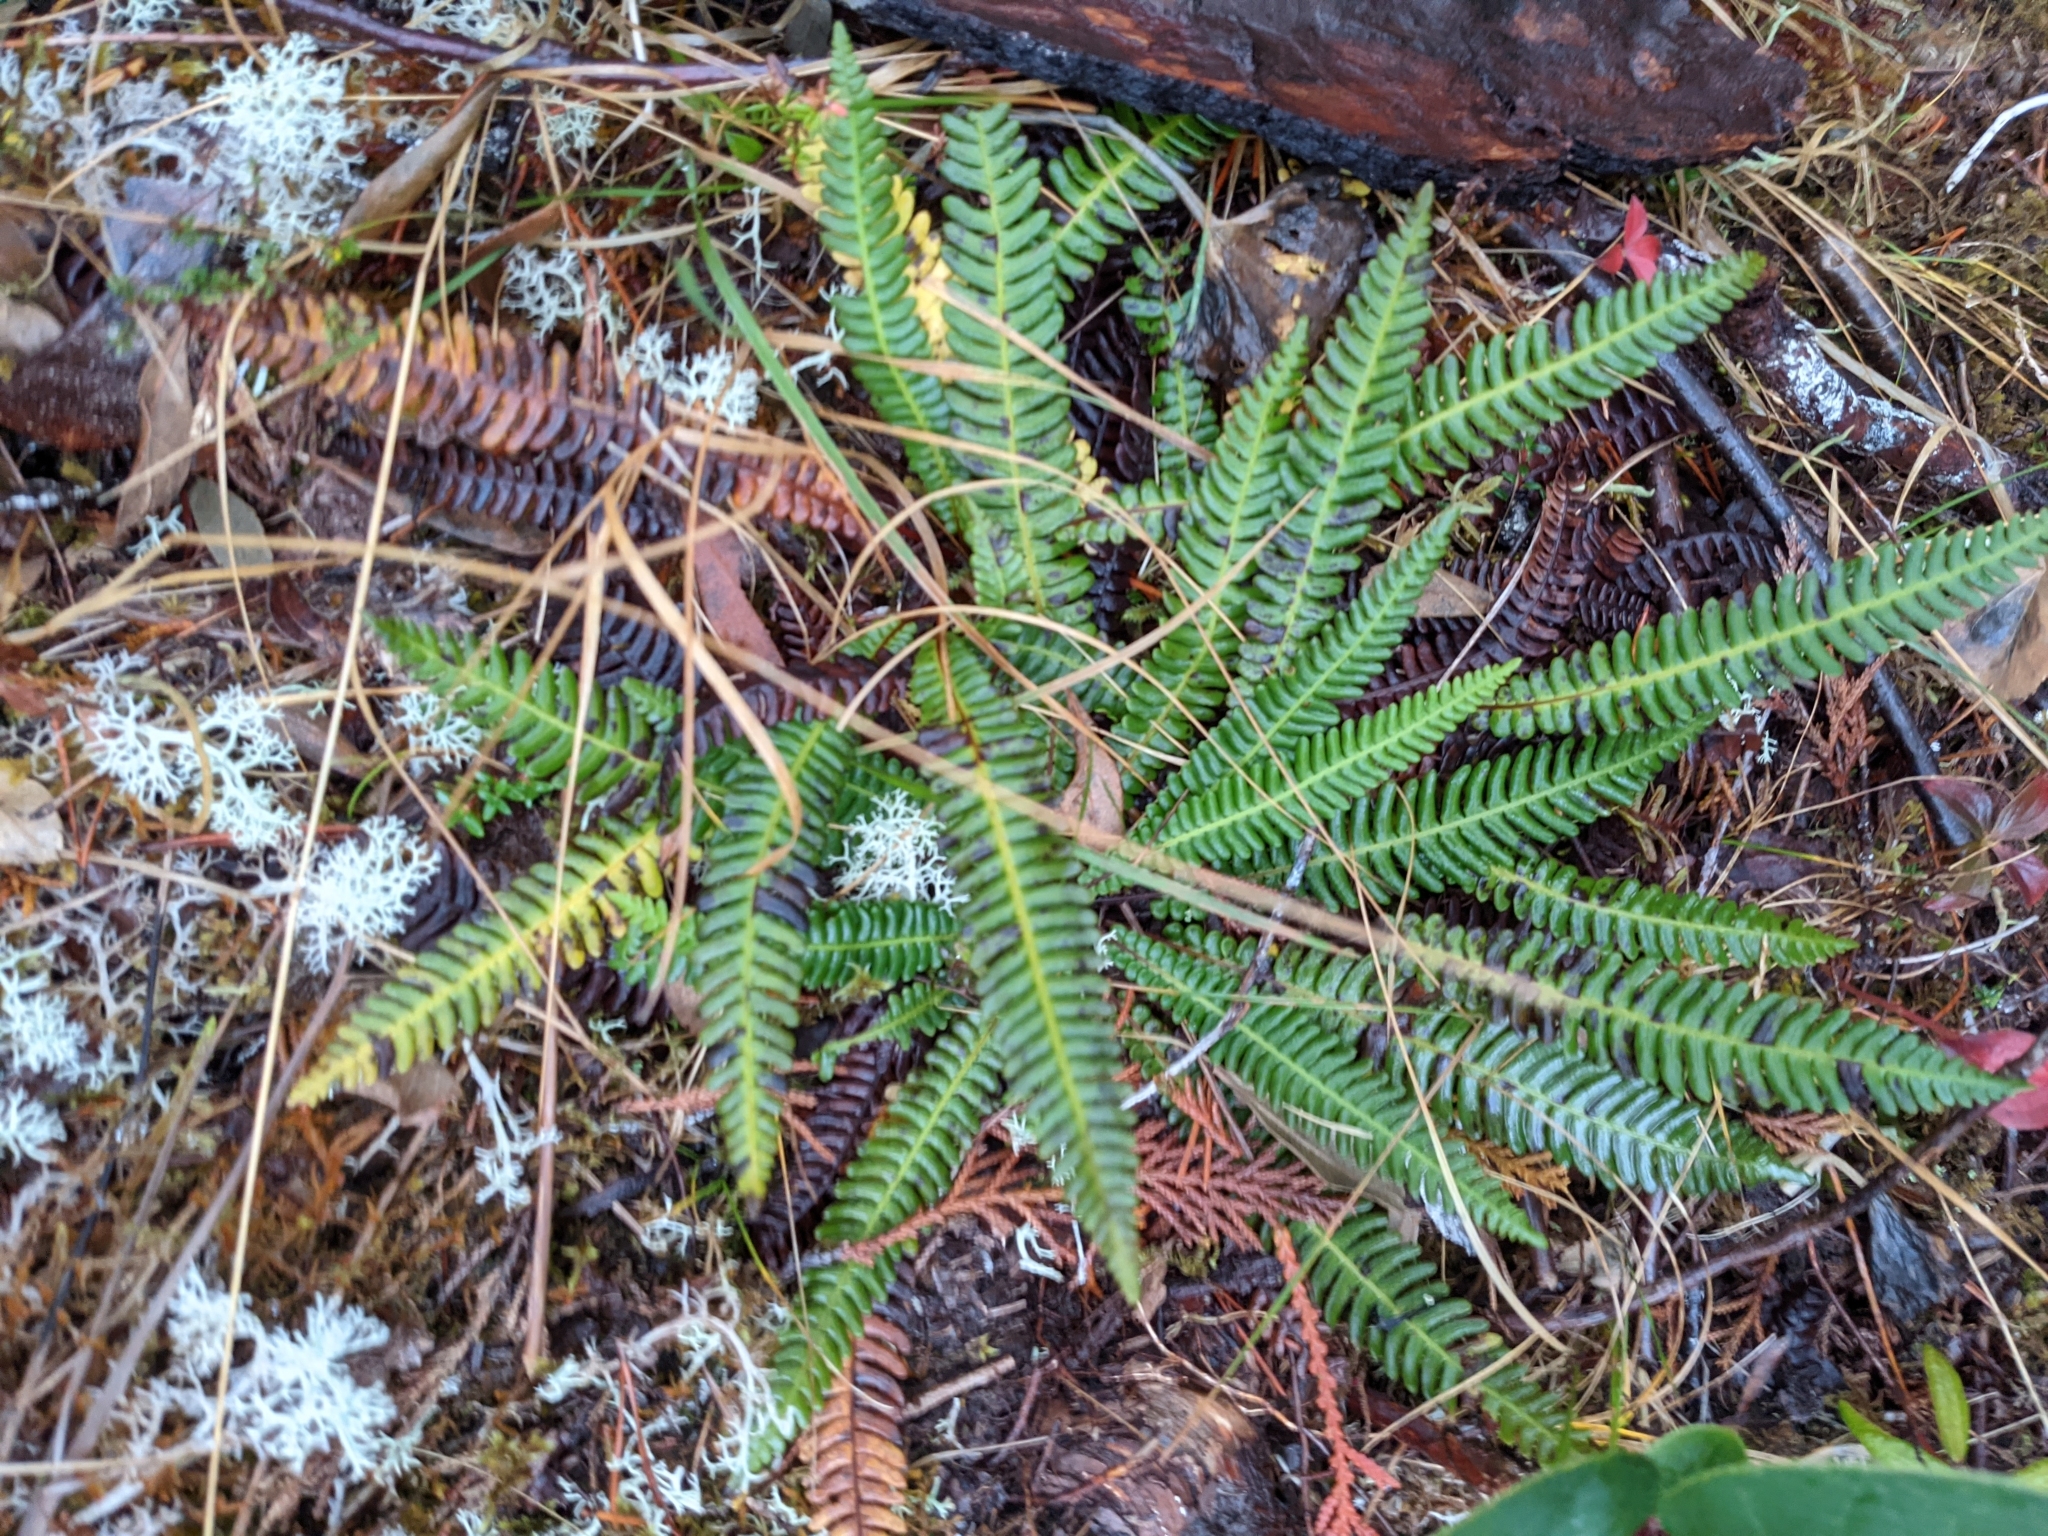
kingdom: Plantae
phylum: Tracheophyta
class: Polypodiopsida
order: Polypodiales
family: Blechnaceae
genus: Struthiopteris
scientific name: Struthiopteris spicant
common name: Deer fern
